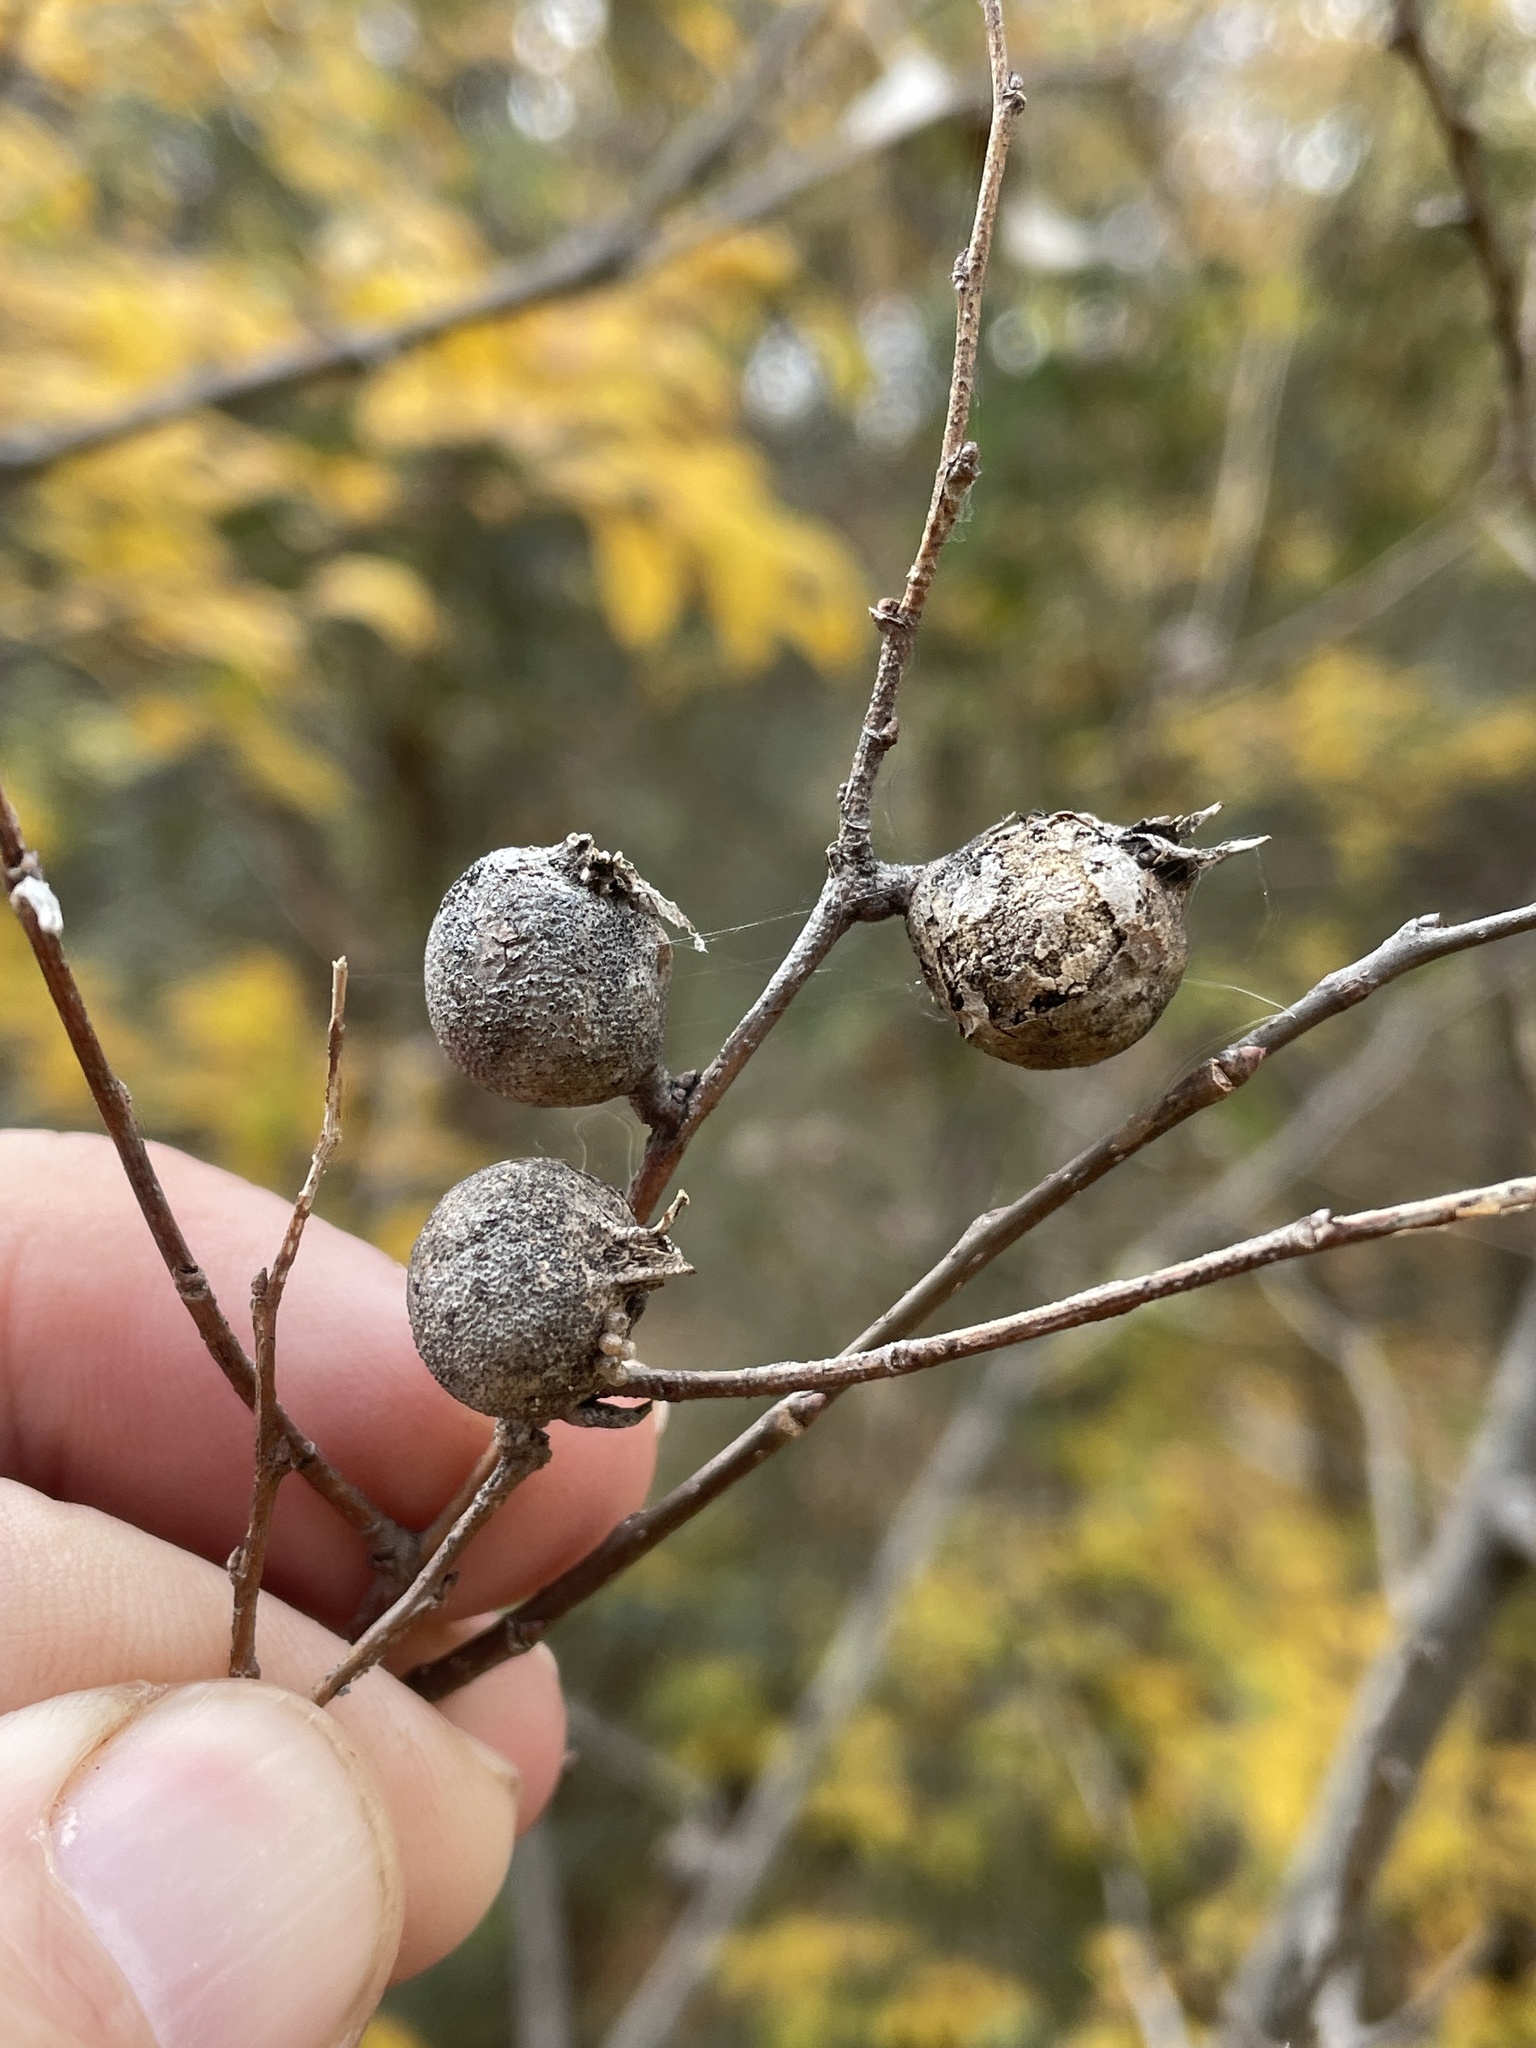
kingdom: Animalia
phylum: Arthropoda
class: Insecta
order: Hemiptera
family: Aphalaridae
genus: Pachypsylla
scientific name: Pachypsylla venusta
